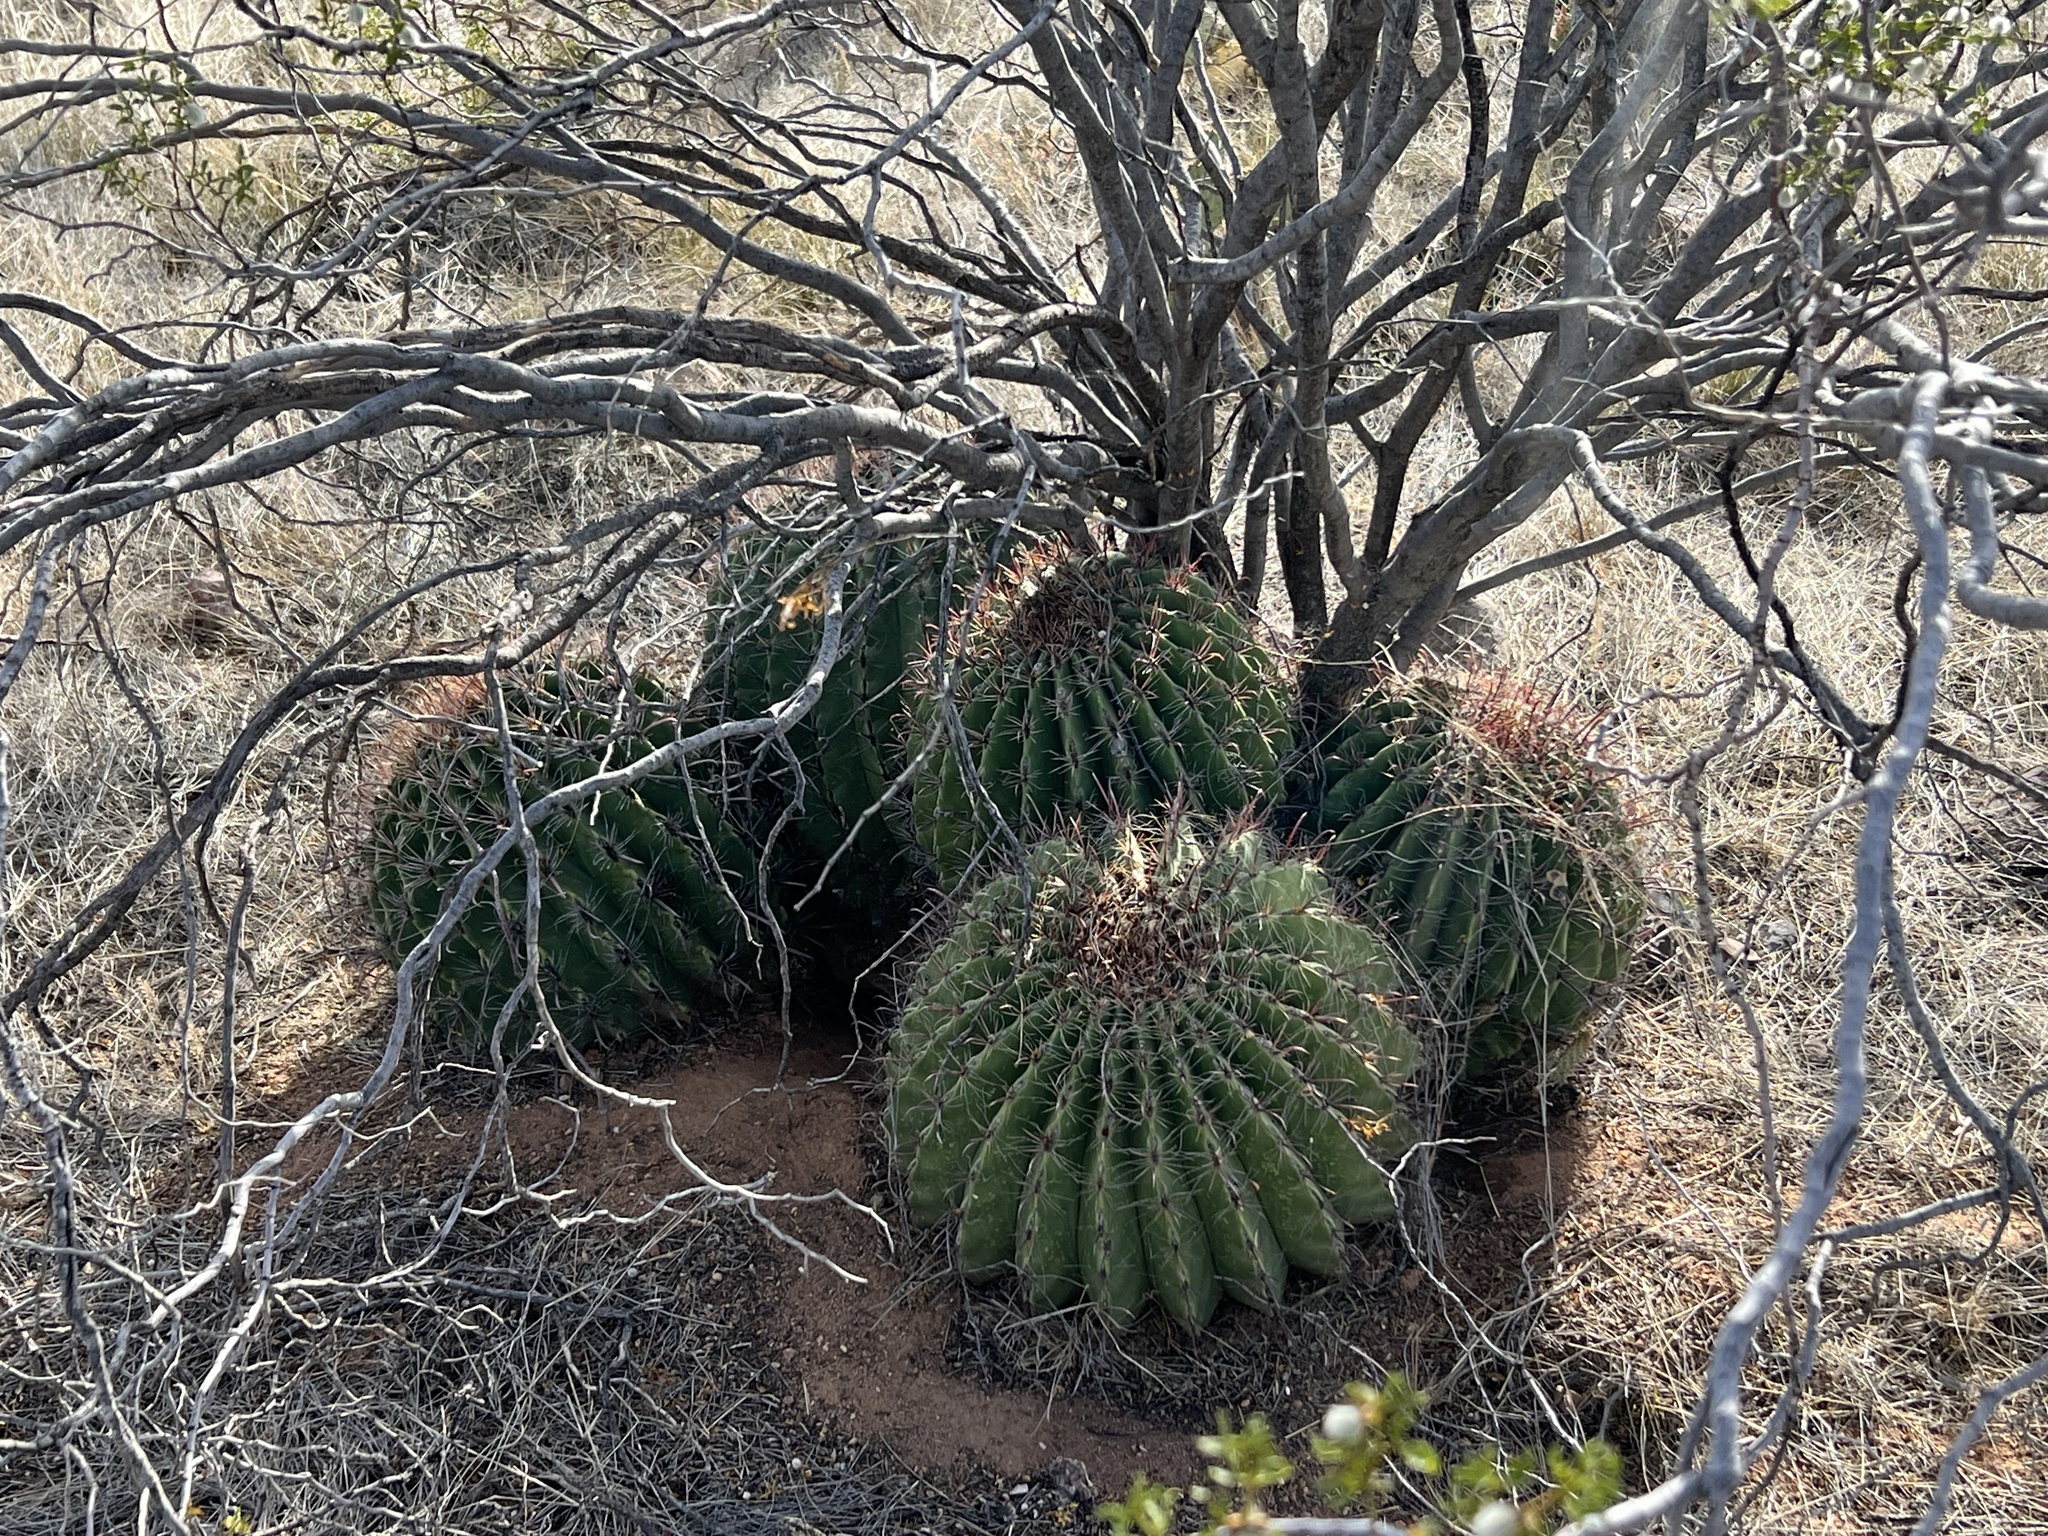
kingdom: Plantae
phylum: Tracheophyta
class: Magnoliopsida
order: Caryophyllales
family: Cactaceae
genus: Ferocactus
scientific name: Ferocactus wislizeni
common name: Candy barrel cactus
